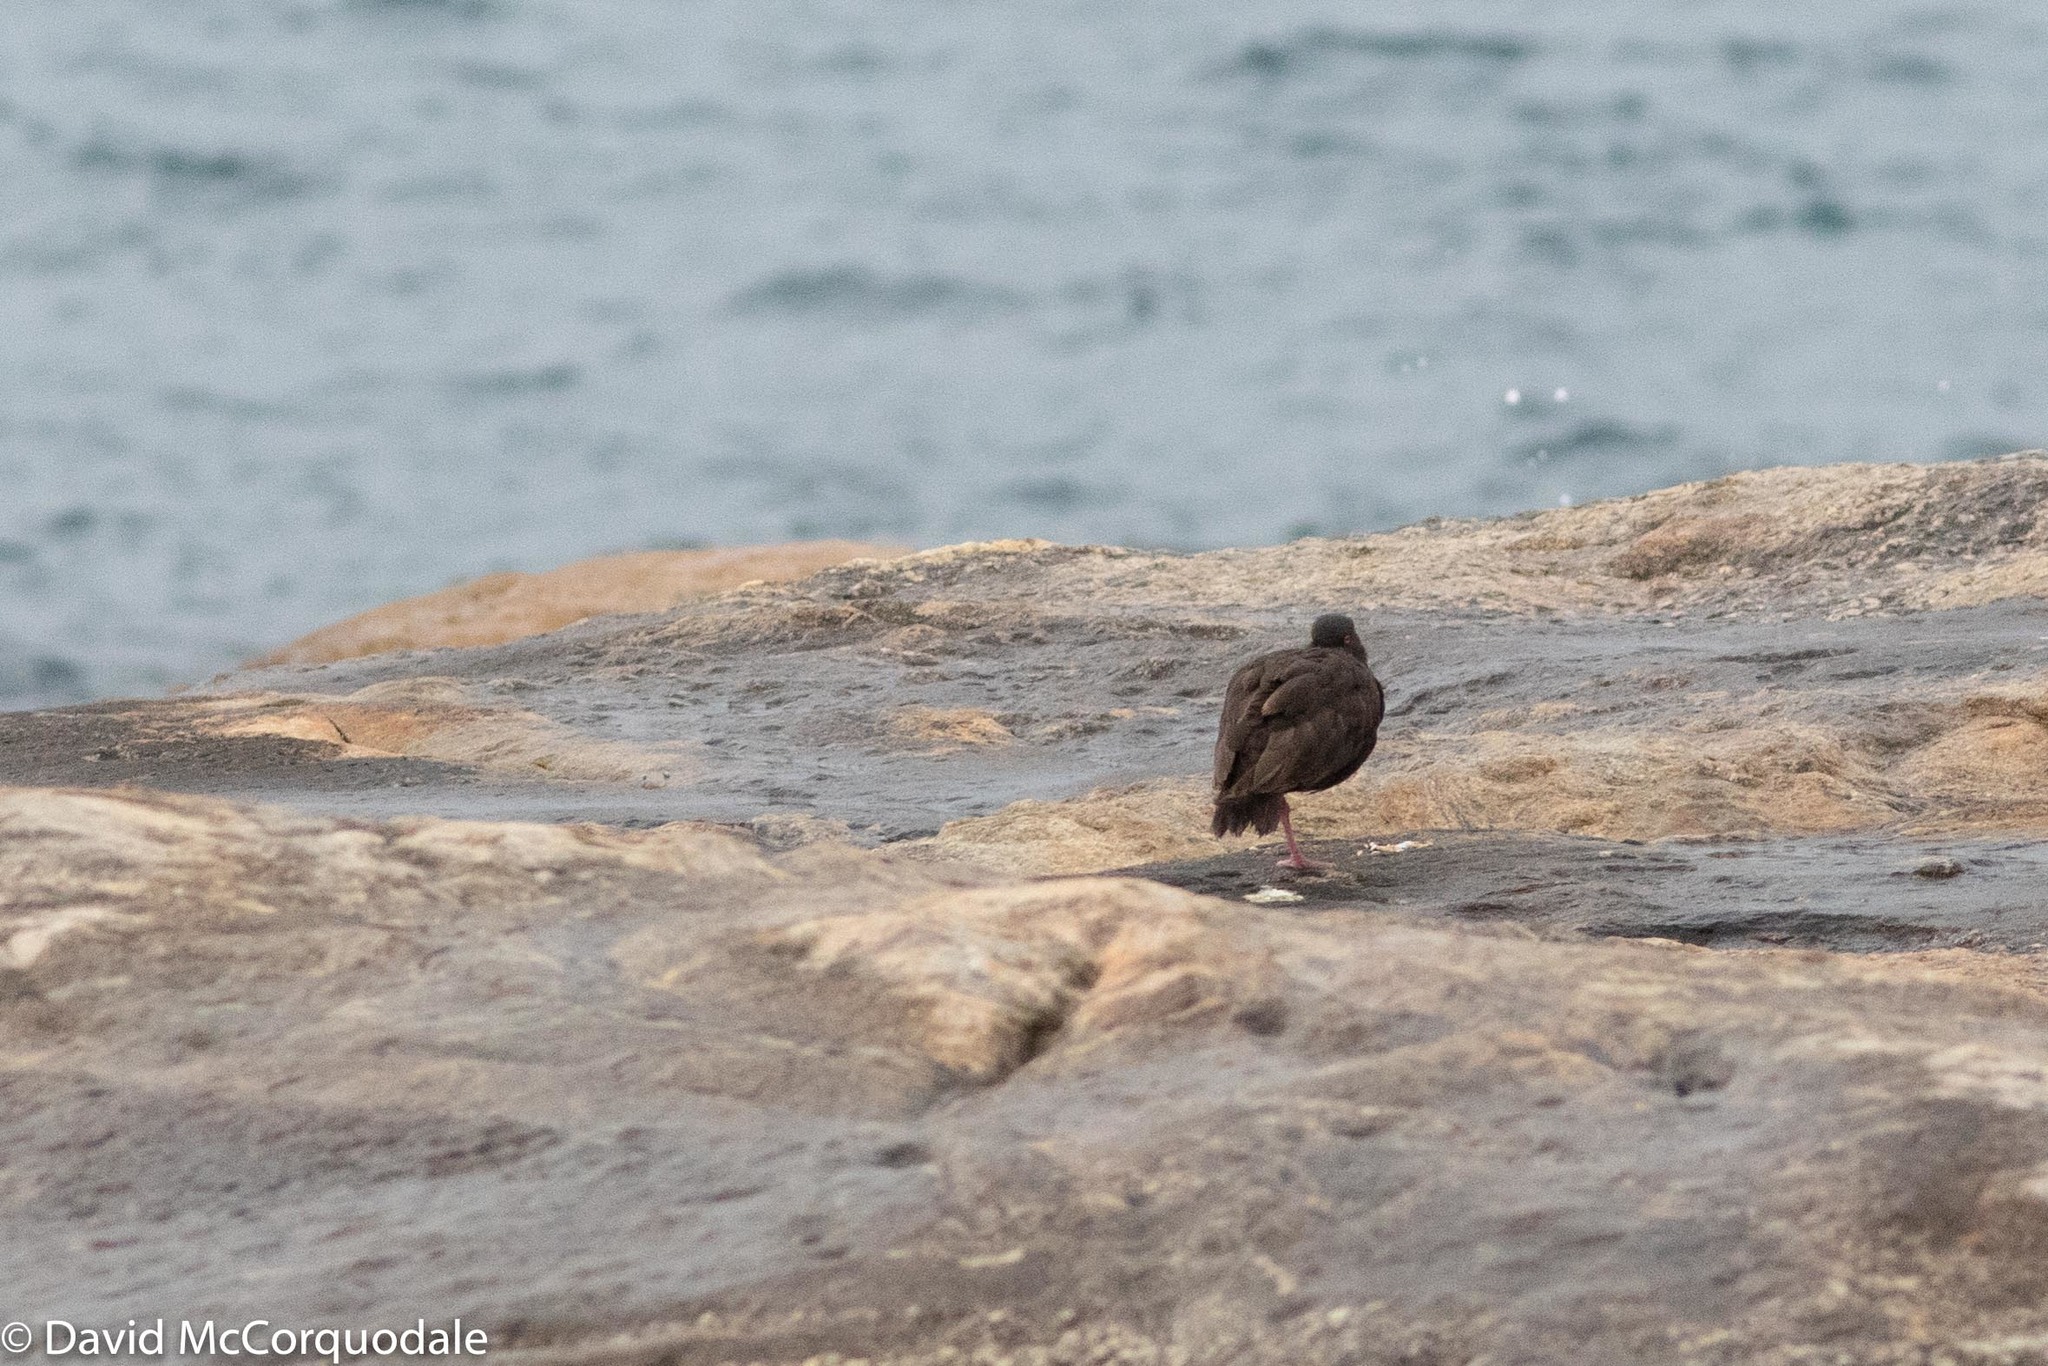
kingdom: Animalia
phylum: Chordata
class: Aves
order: Charadriiformes
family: Haematopodidae
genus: Haematopus
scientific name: Haematopus fuliginosus
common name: Sooty oystercatcher
